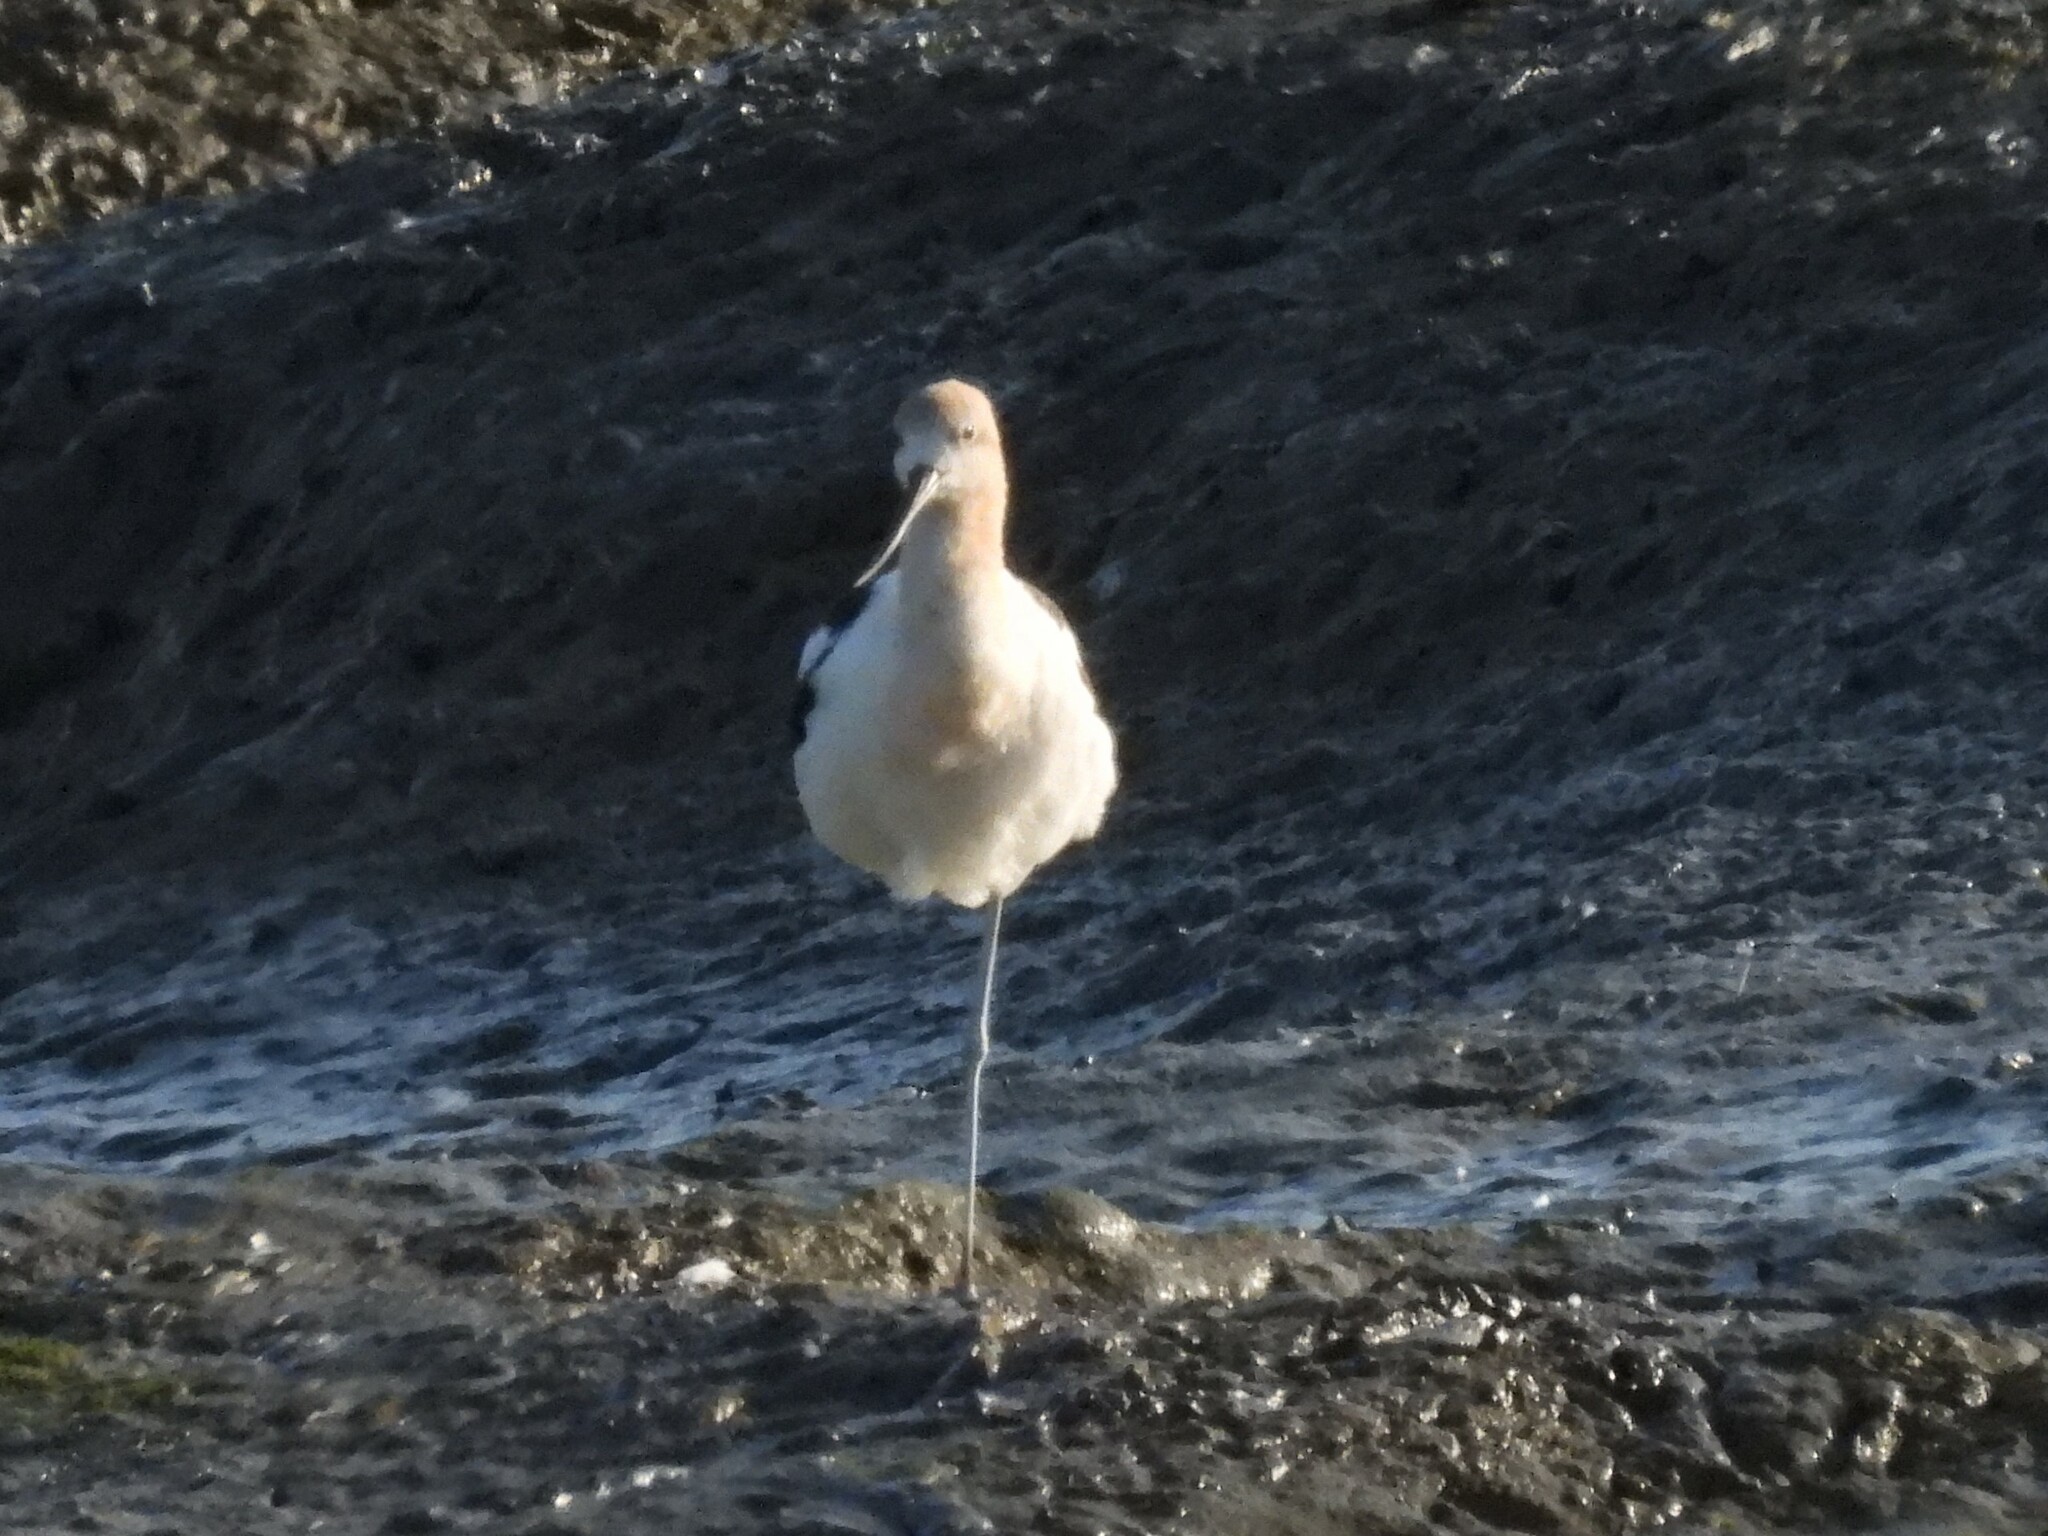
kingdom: Animalia
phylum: Chordata
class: Aves
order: Charadriiformes
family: Recurvirostridae
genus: Recurvirostra
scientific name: Recurvirostra americana
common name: American avocet
